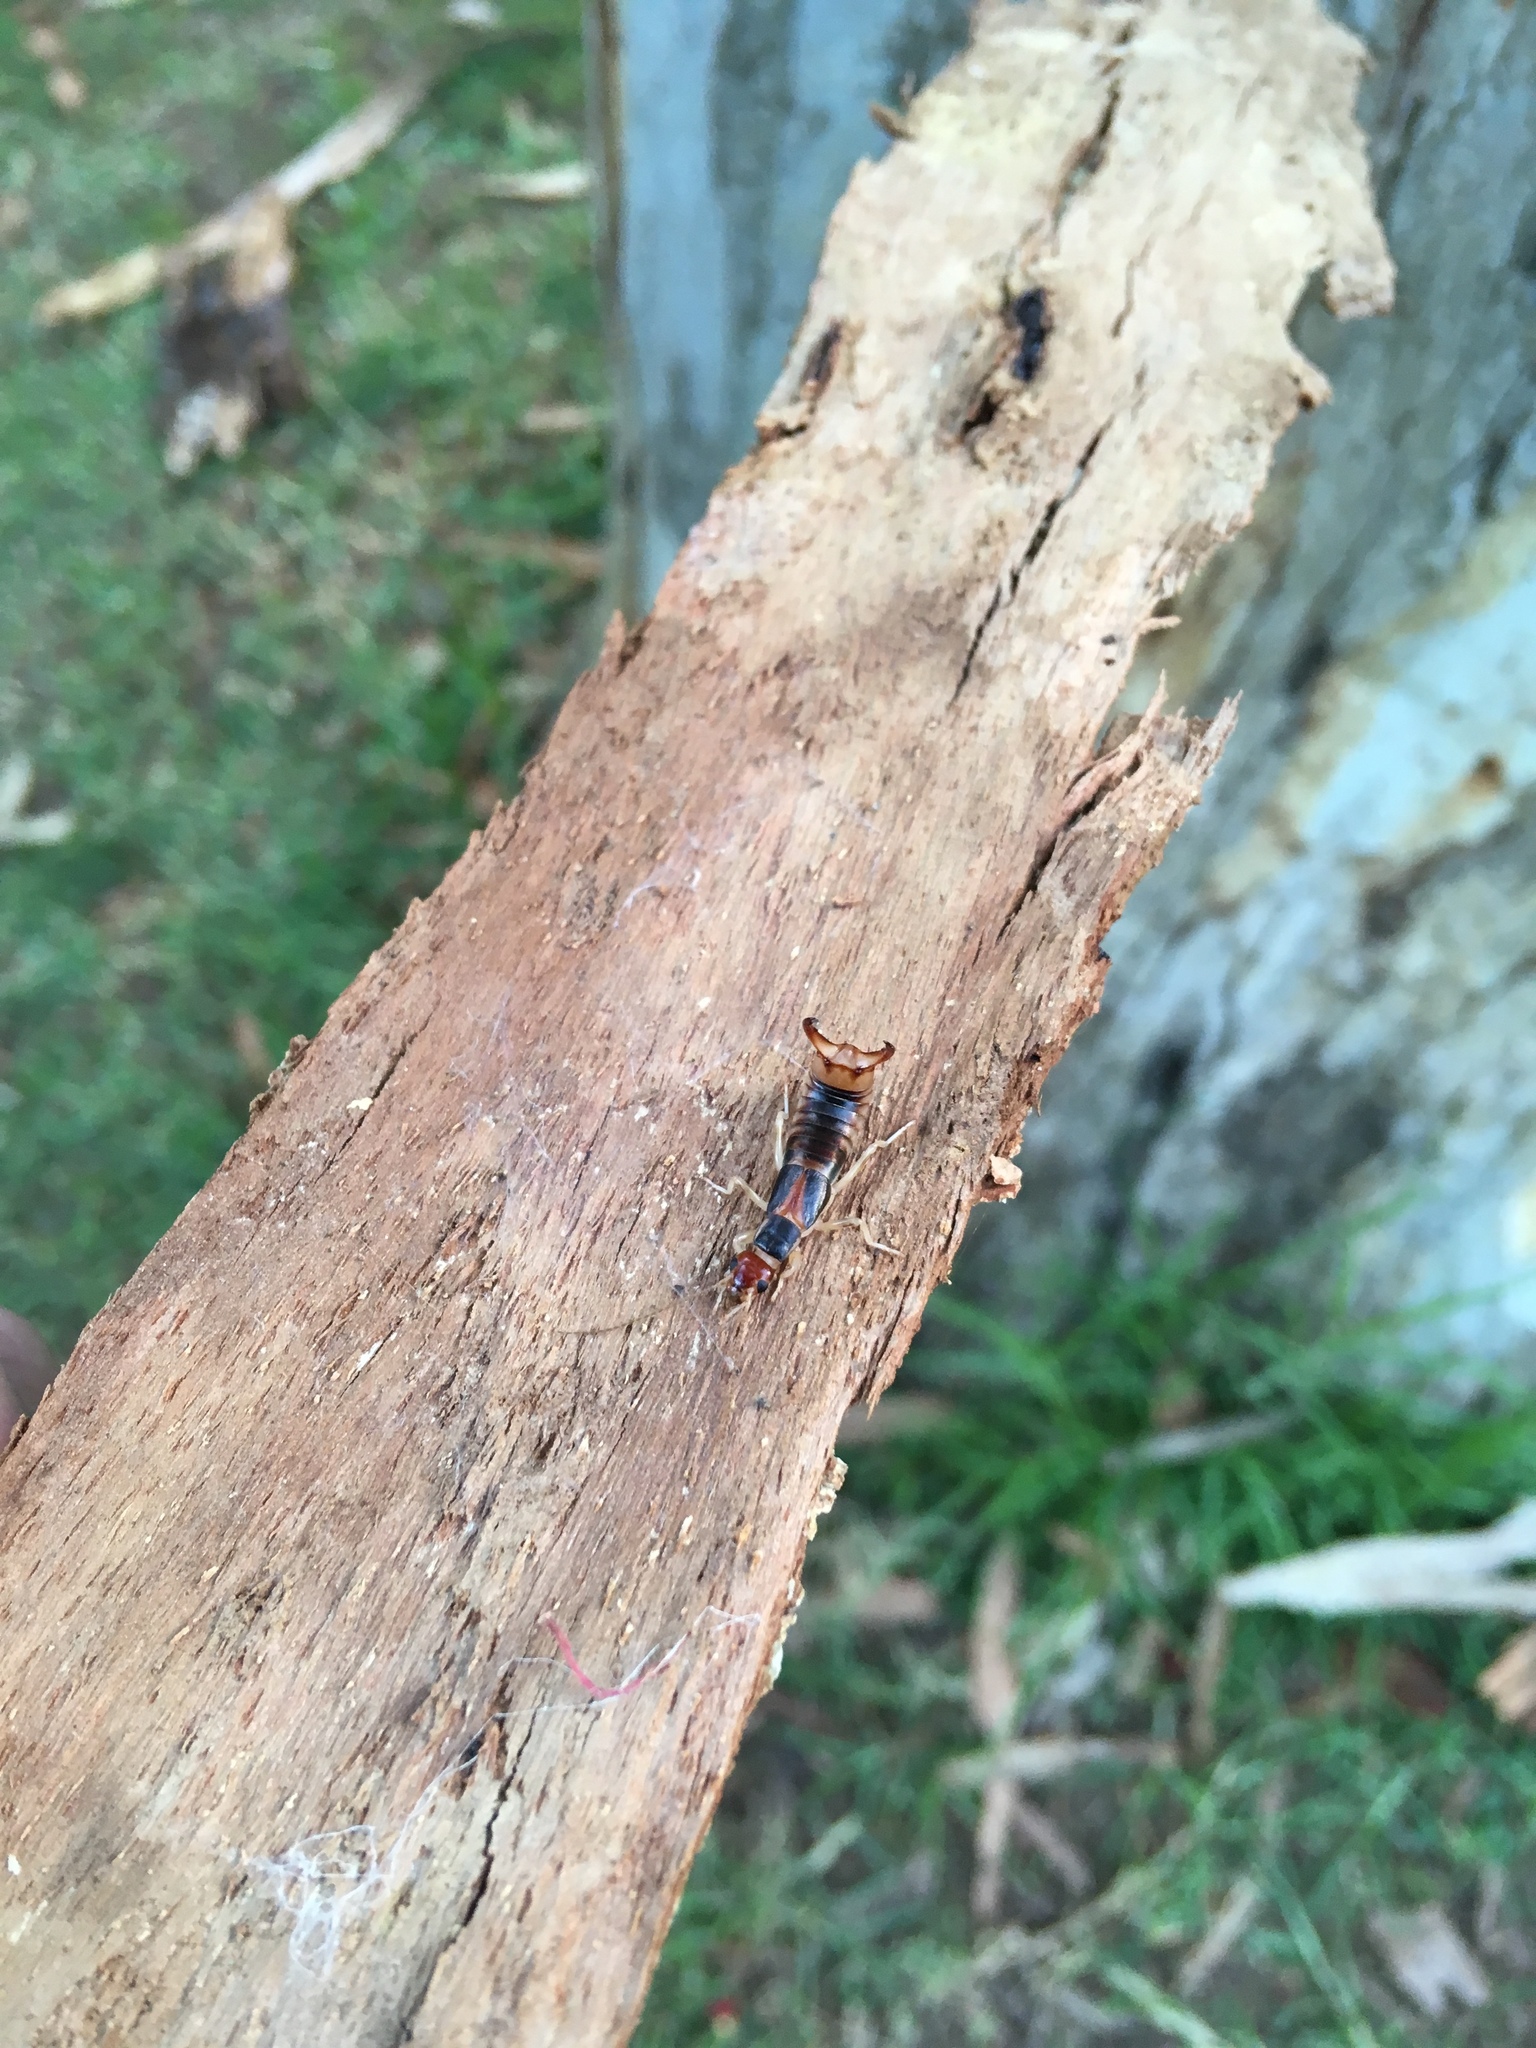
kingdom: Animalia
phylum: Arthropoda
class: Insecta
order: Dermaptera
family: Forficulidae
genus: Forficula
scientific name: Forficula
